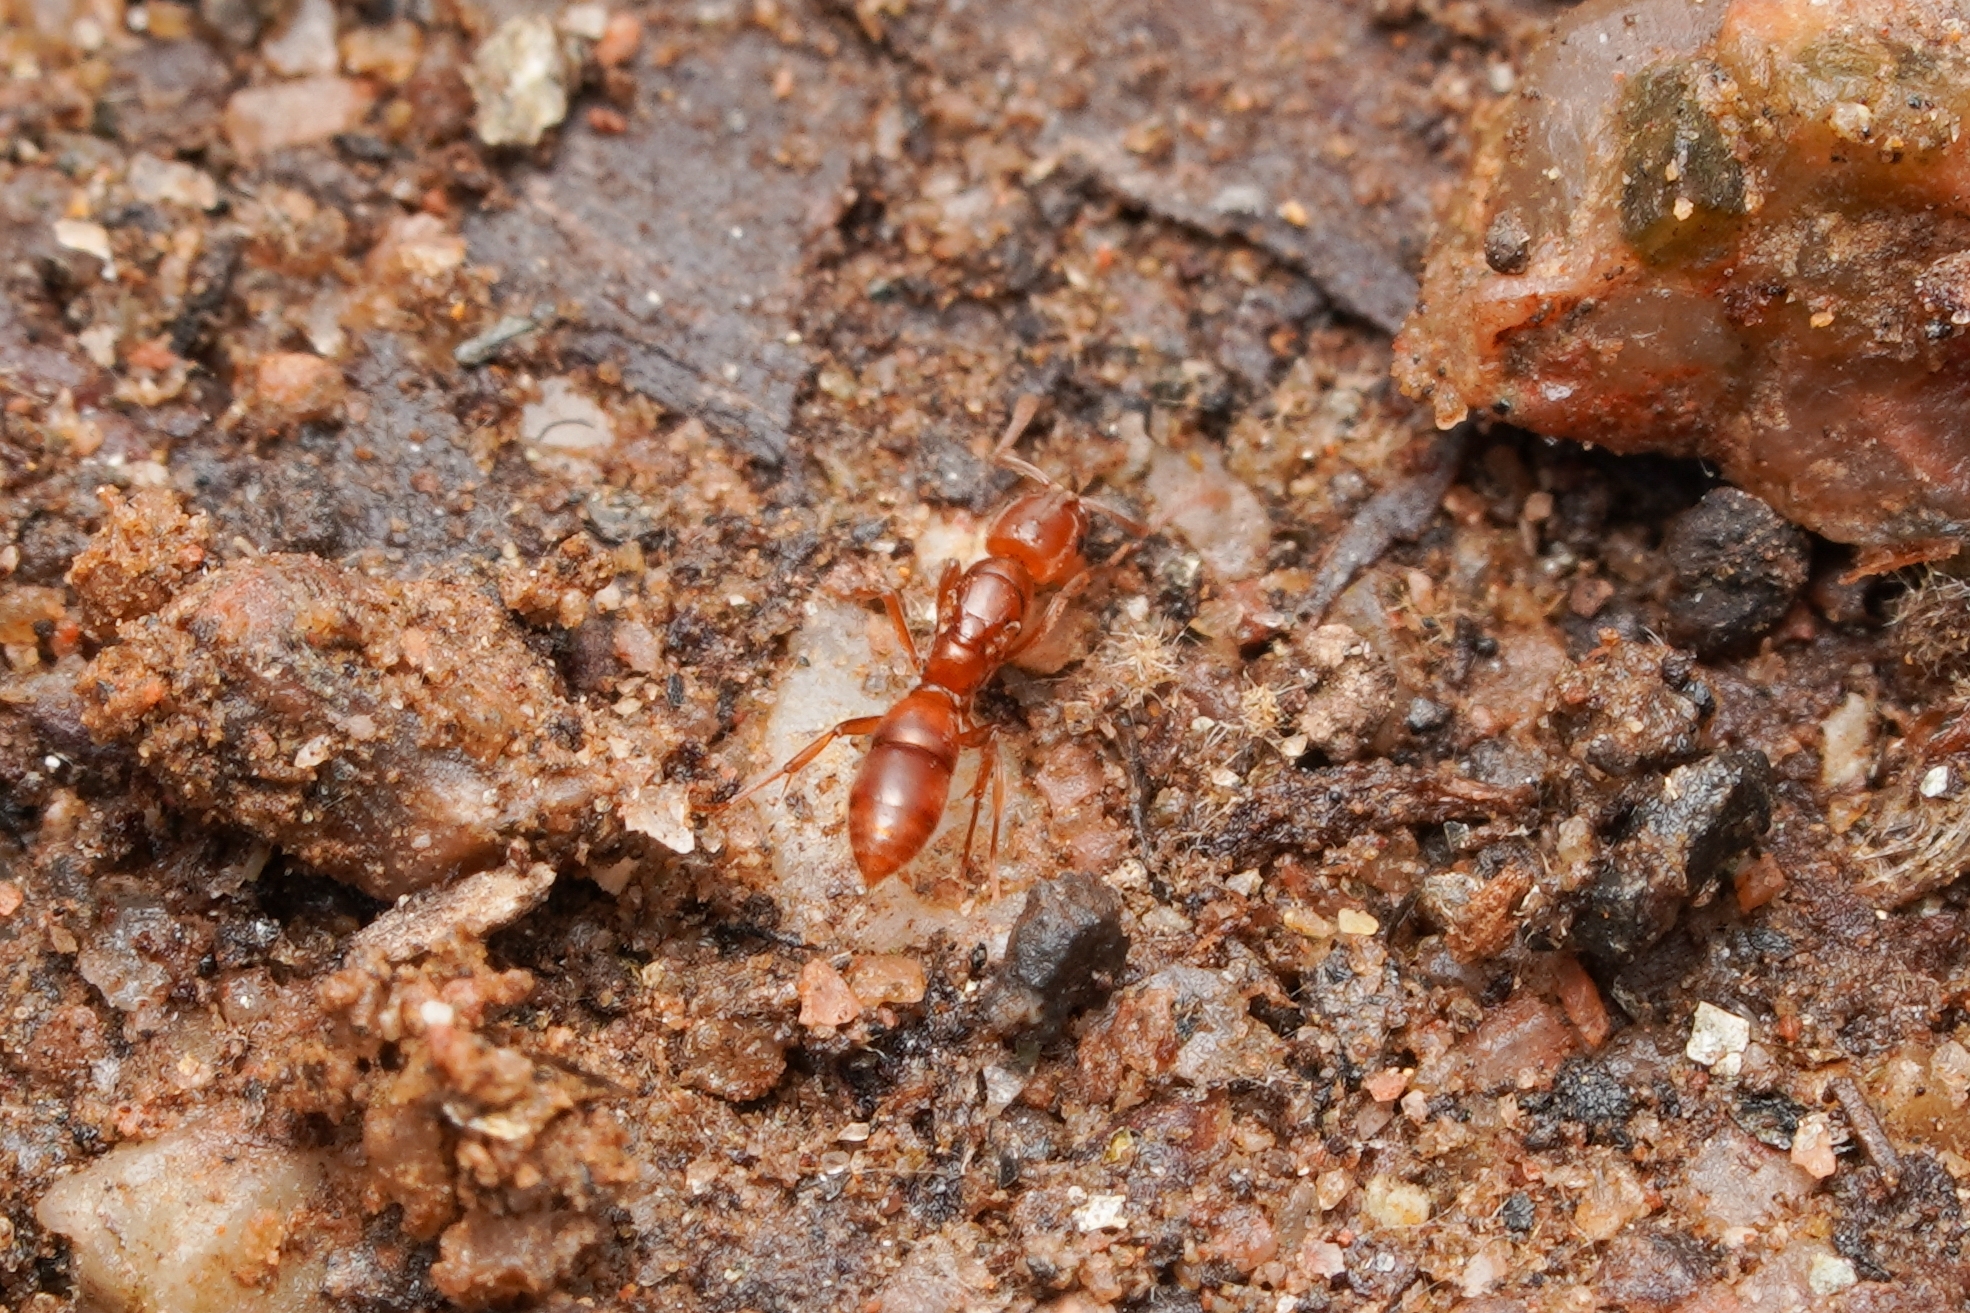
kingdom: Animalia
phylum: Arthropoda
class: Insecta
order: Hymenoptera
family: Formicidae
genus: Hypoponera
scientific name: Hypoponera inexorata
